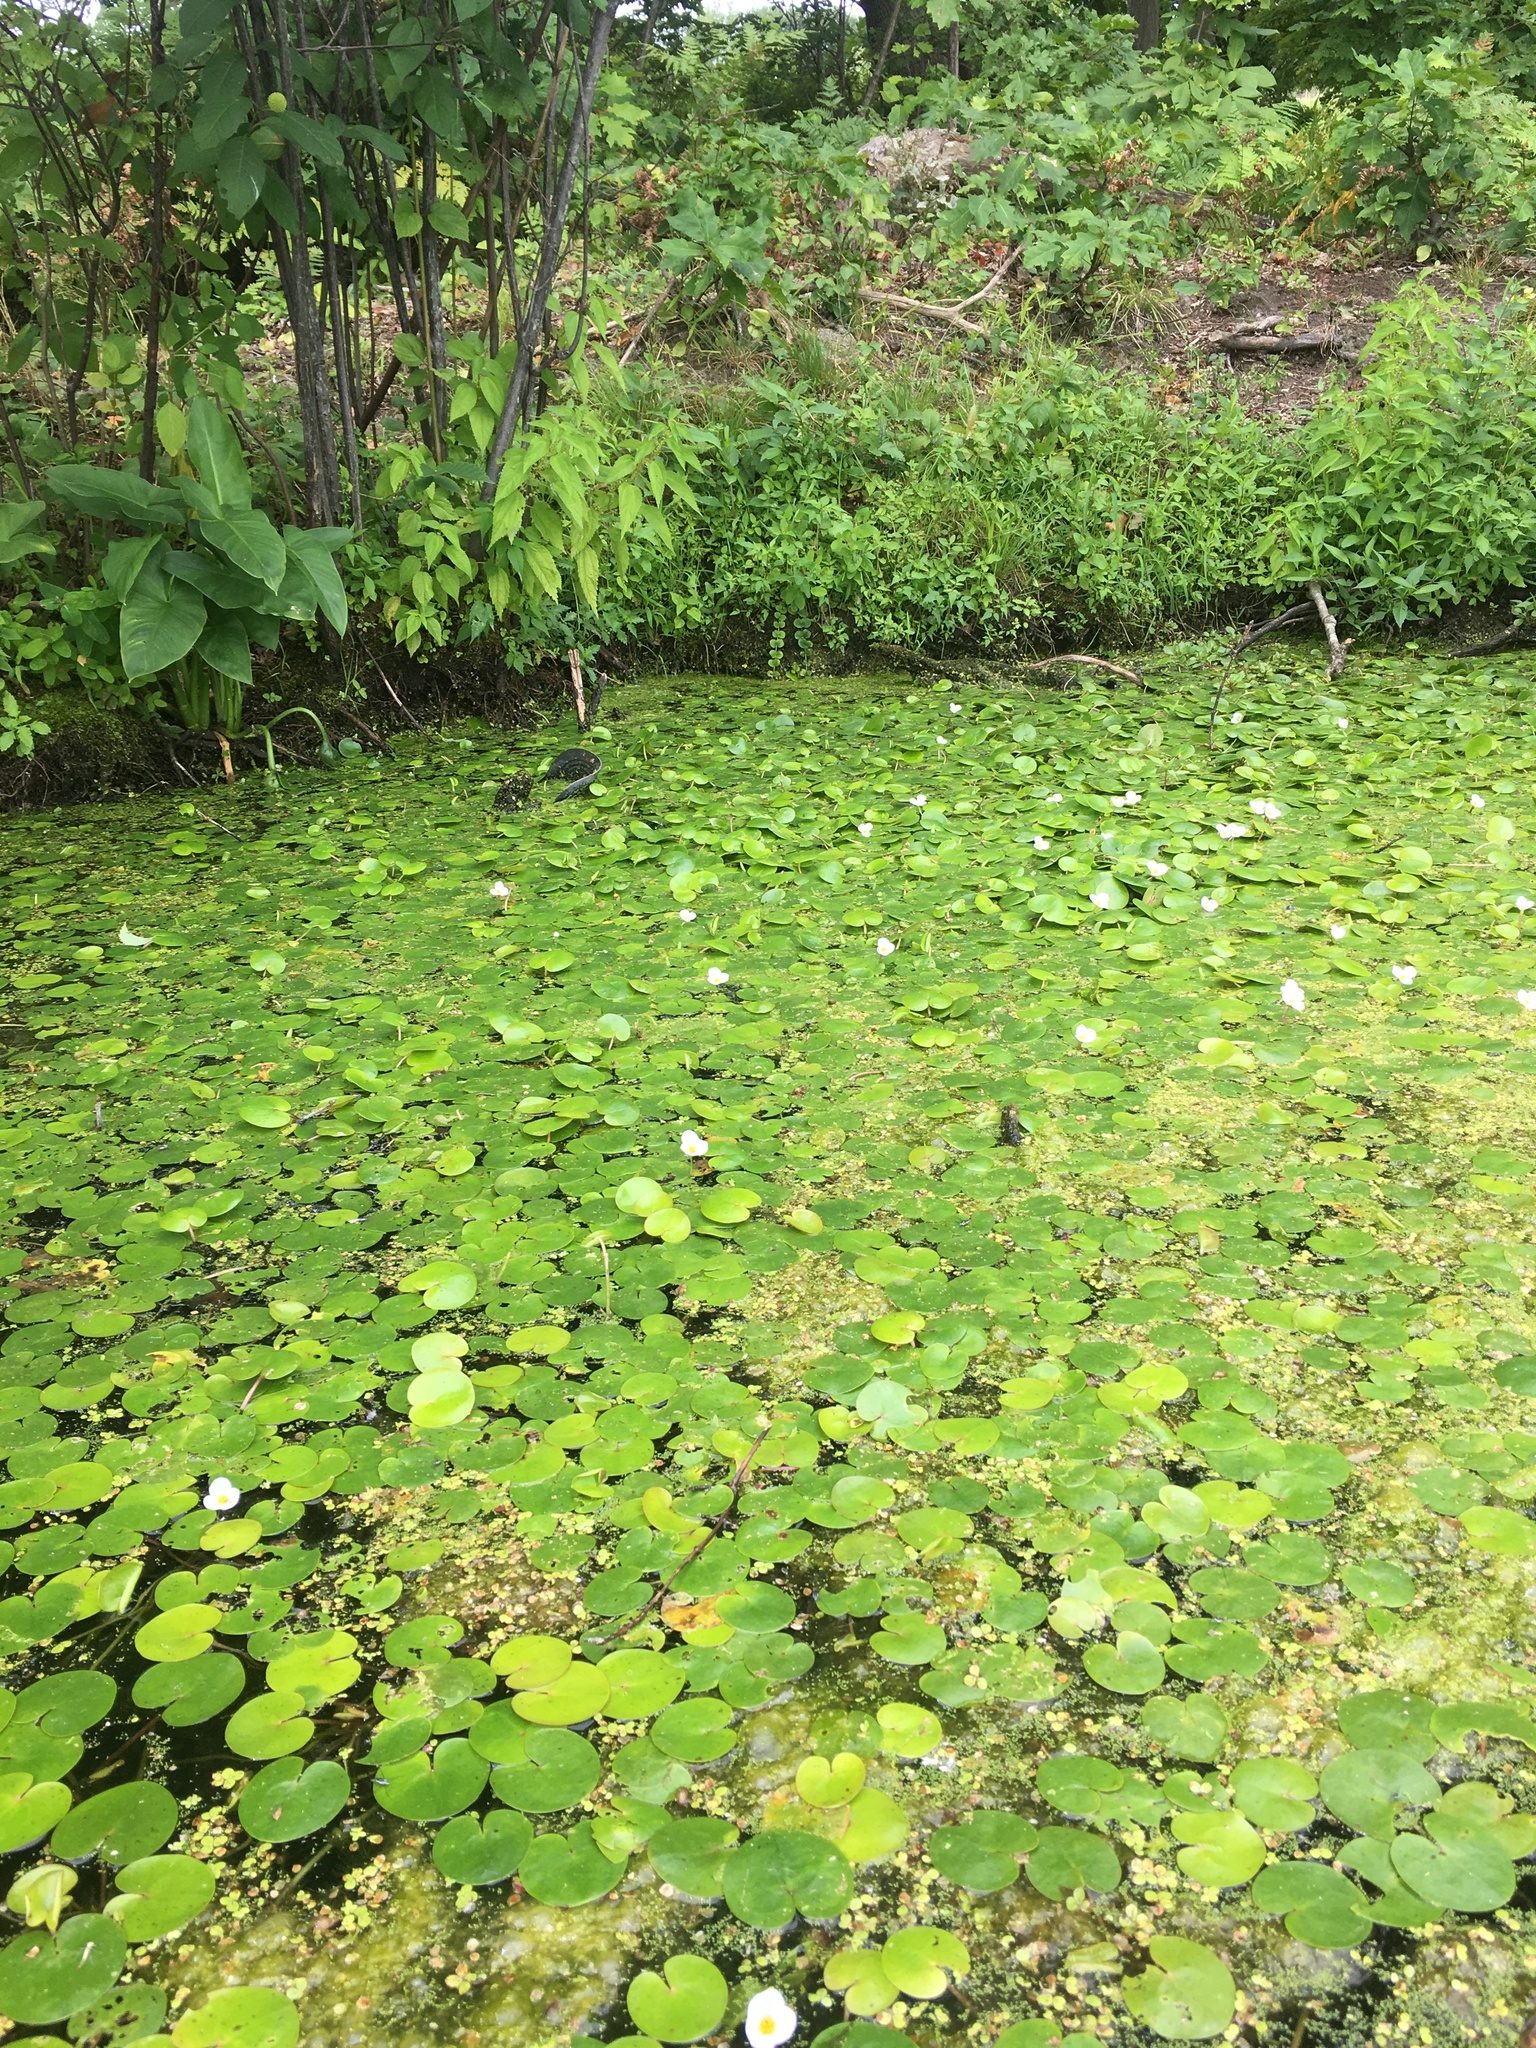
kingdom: Plantae
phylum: Tracheophyta
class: Liliopsida
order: Alismatales
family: Hydrocharitaceae
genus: Hydrocharis
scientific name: Hydrocharis morsus-ranae
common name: Frogbit
